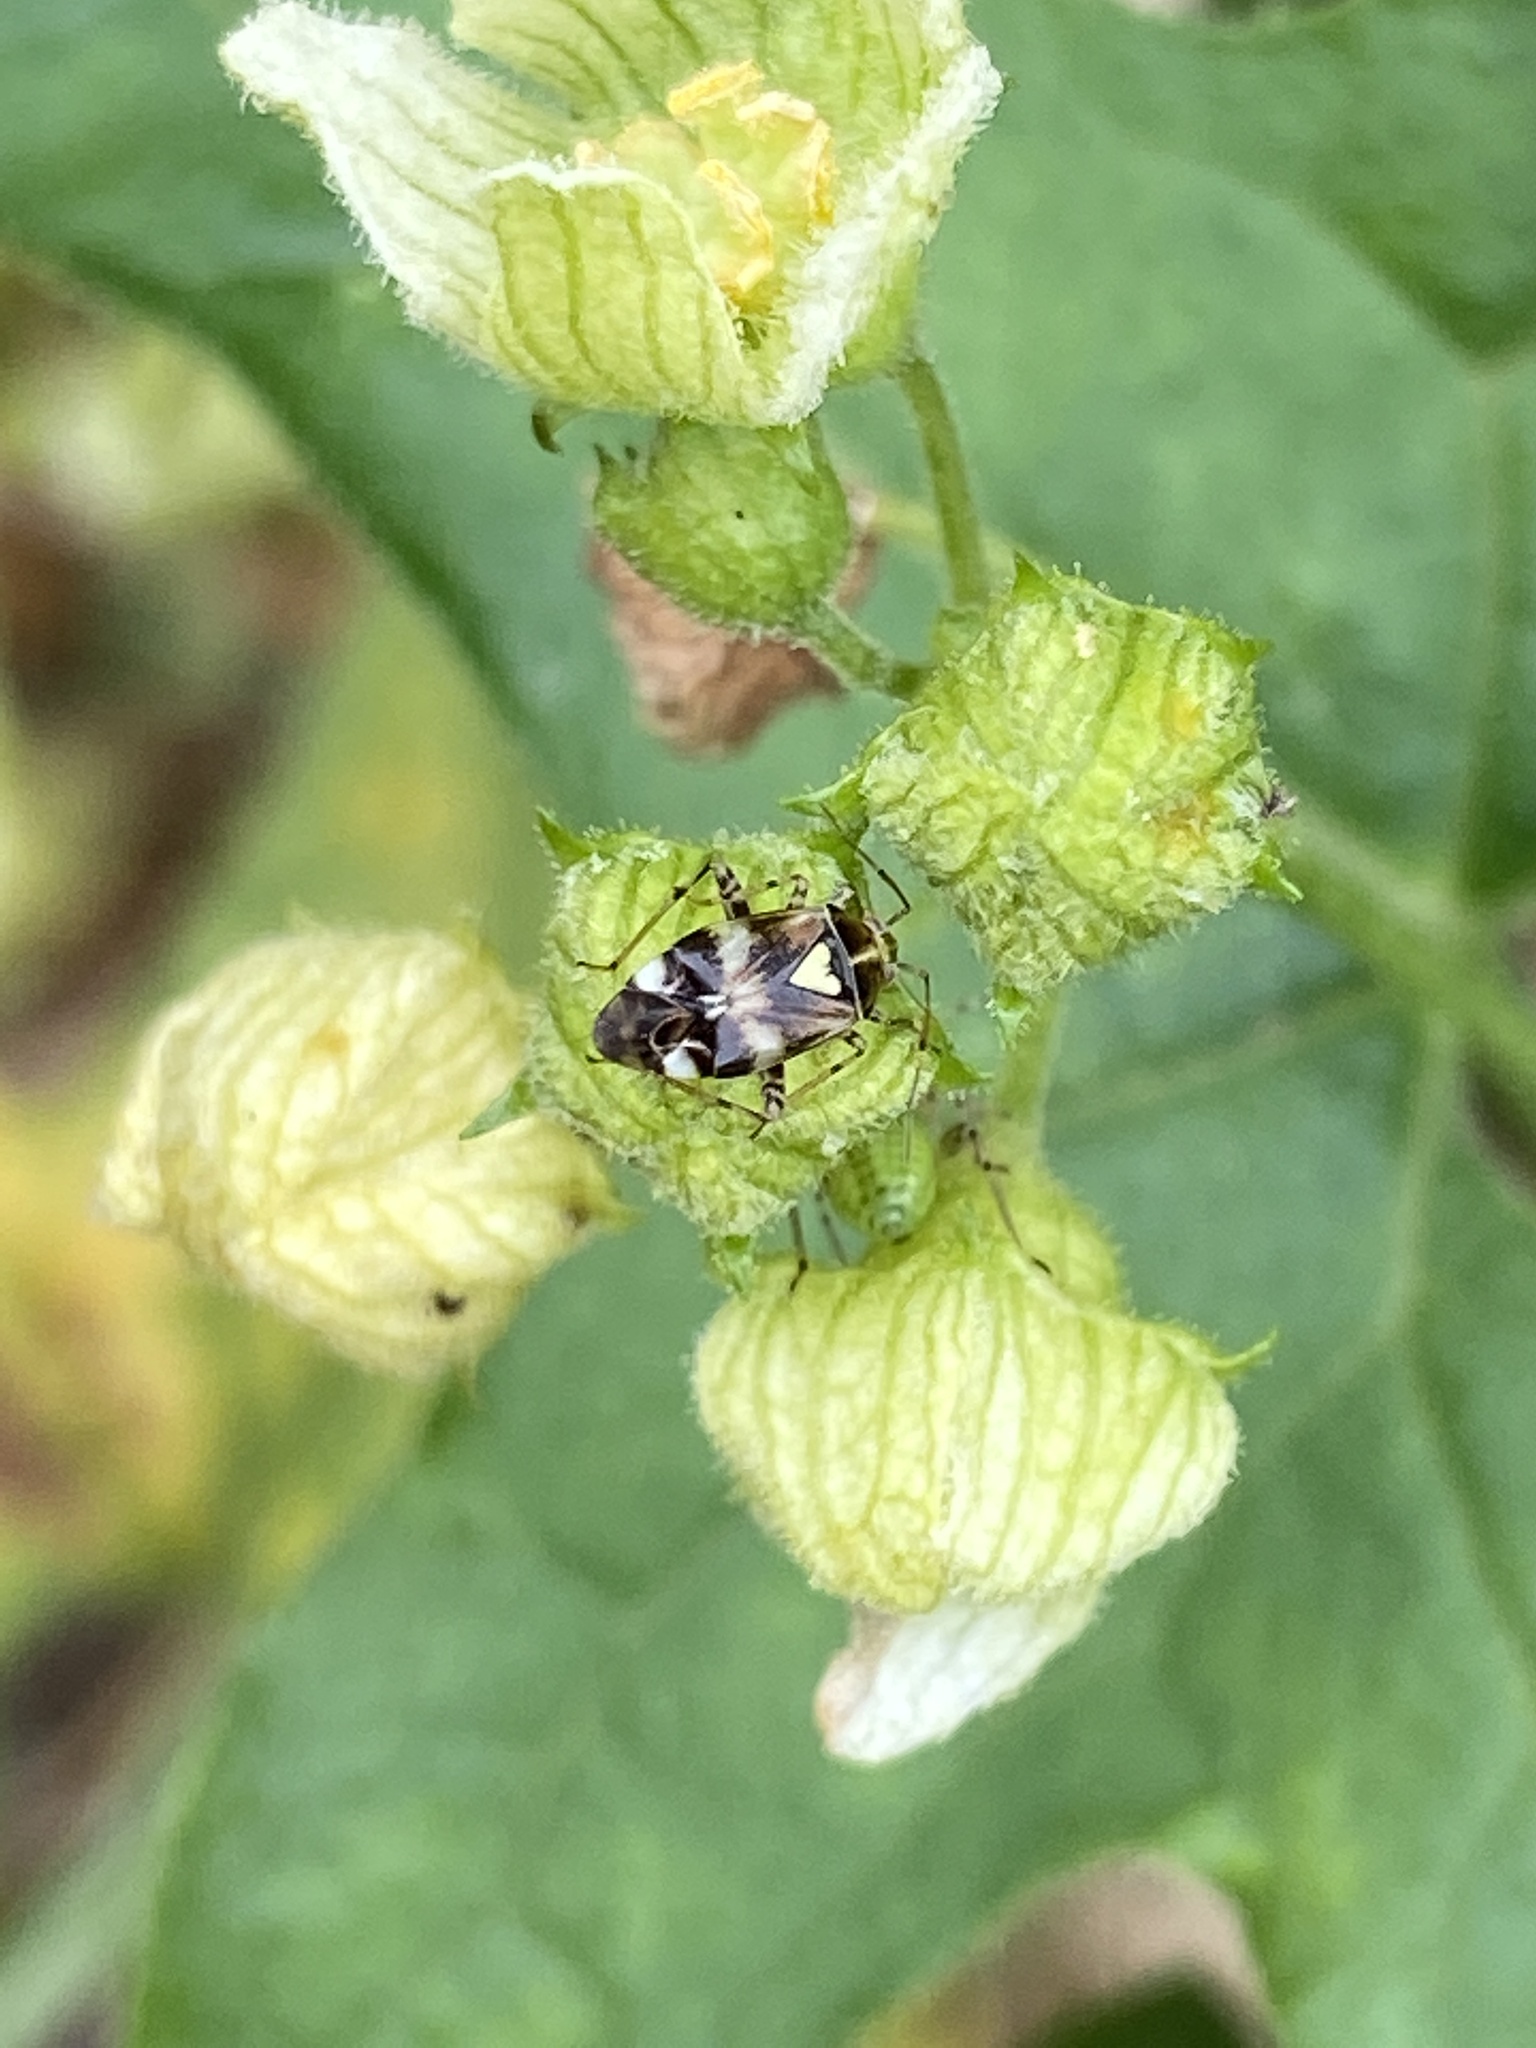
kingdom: Animalia
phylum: Arthropoda
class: Insecta
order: Hemiptera
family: Miridae
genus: Liocoris
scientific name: Liocoris tripustulatus
